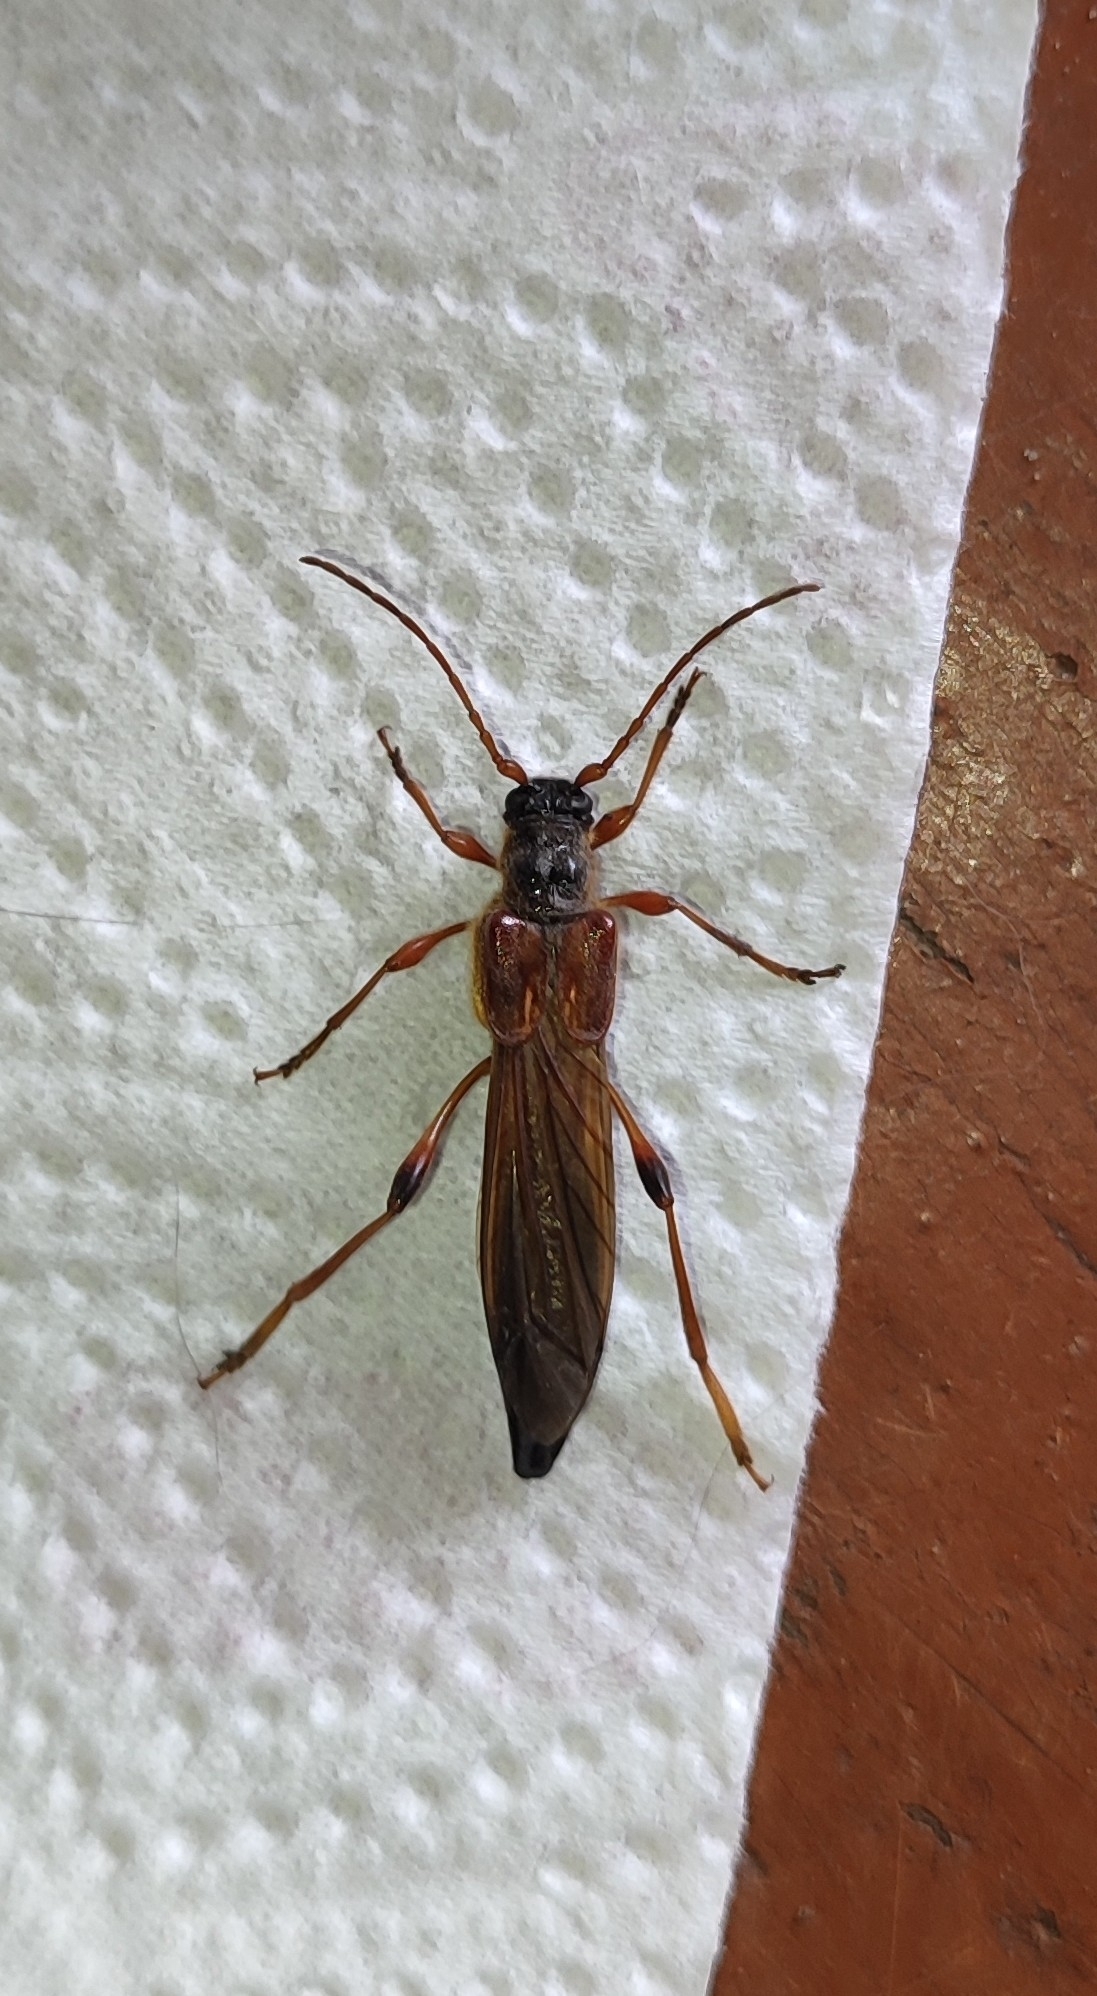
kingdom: Animalia
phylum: Arthropoda
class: Insecta
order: Coleoptera
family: Cerambycidae
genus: Necydalis
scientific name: Necydalis major
